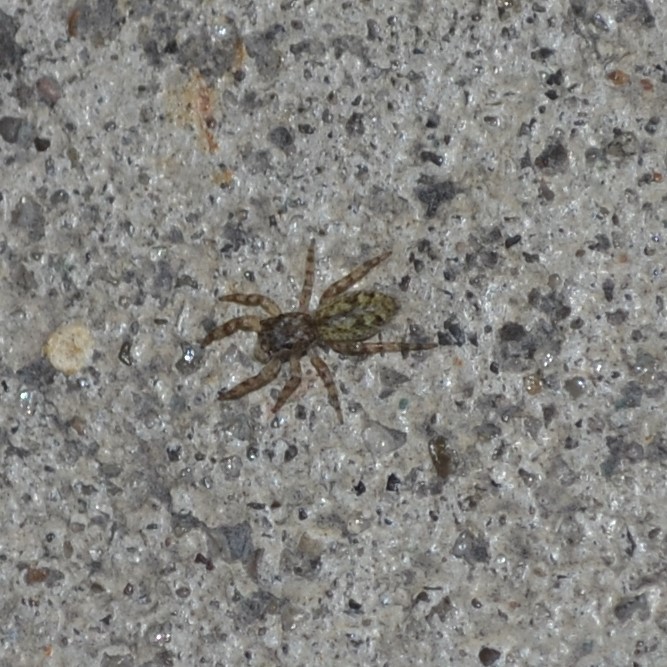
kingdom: Animalia
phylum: Arthropoda
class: Arachnida
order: Araneae
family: Salticidae
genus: Platycryptus
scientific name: Platycryptus undatus
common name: Tan jumping spider
